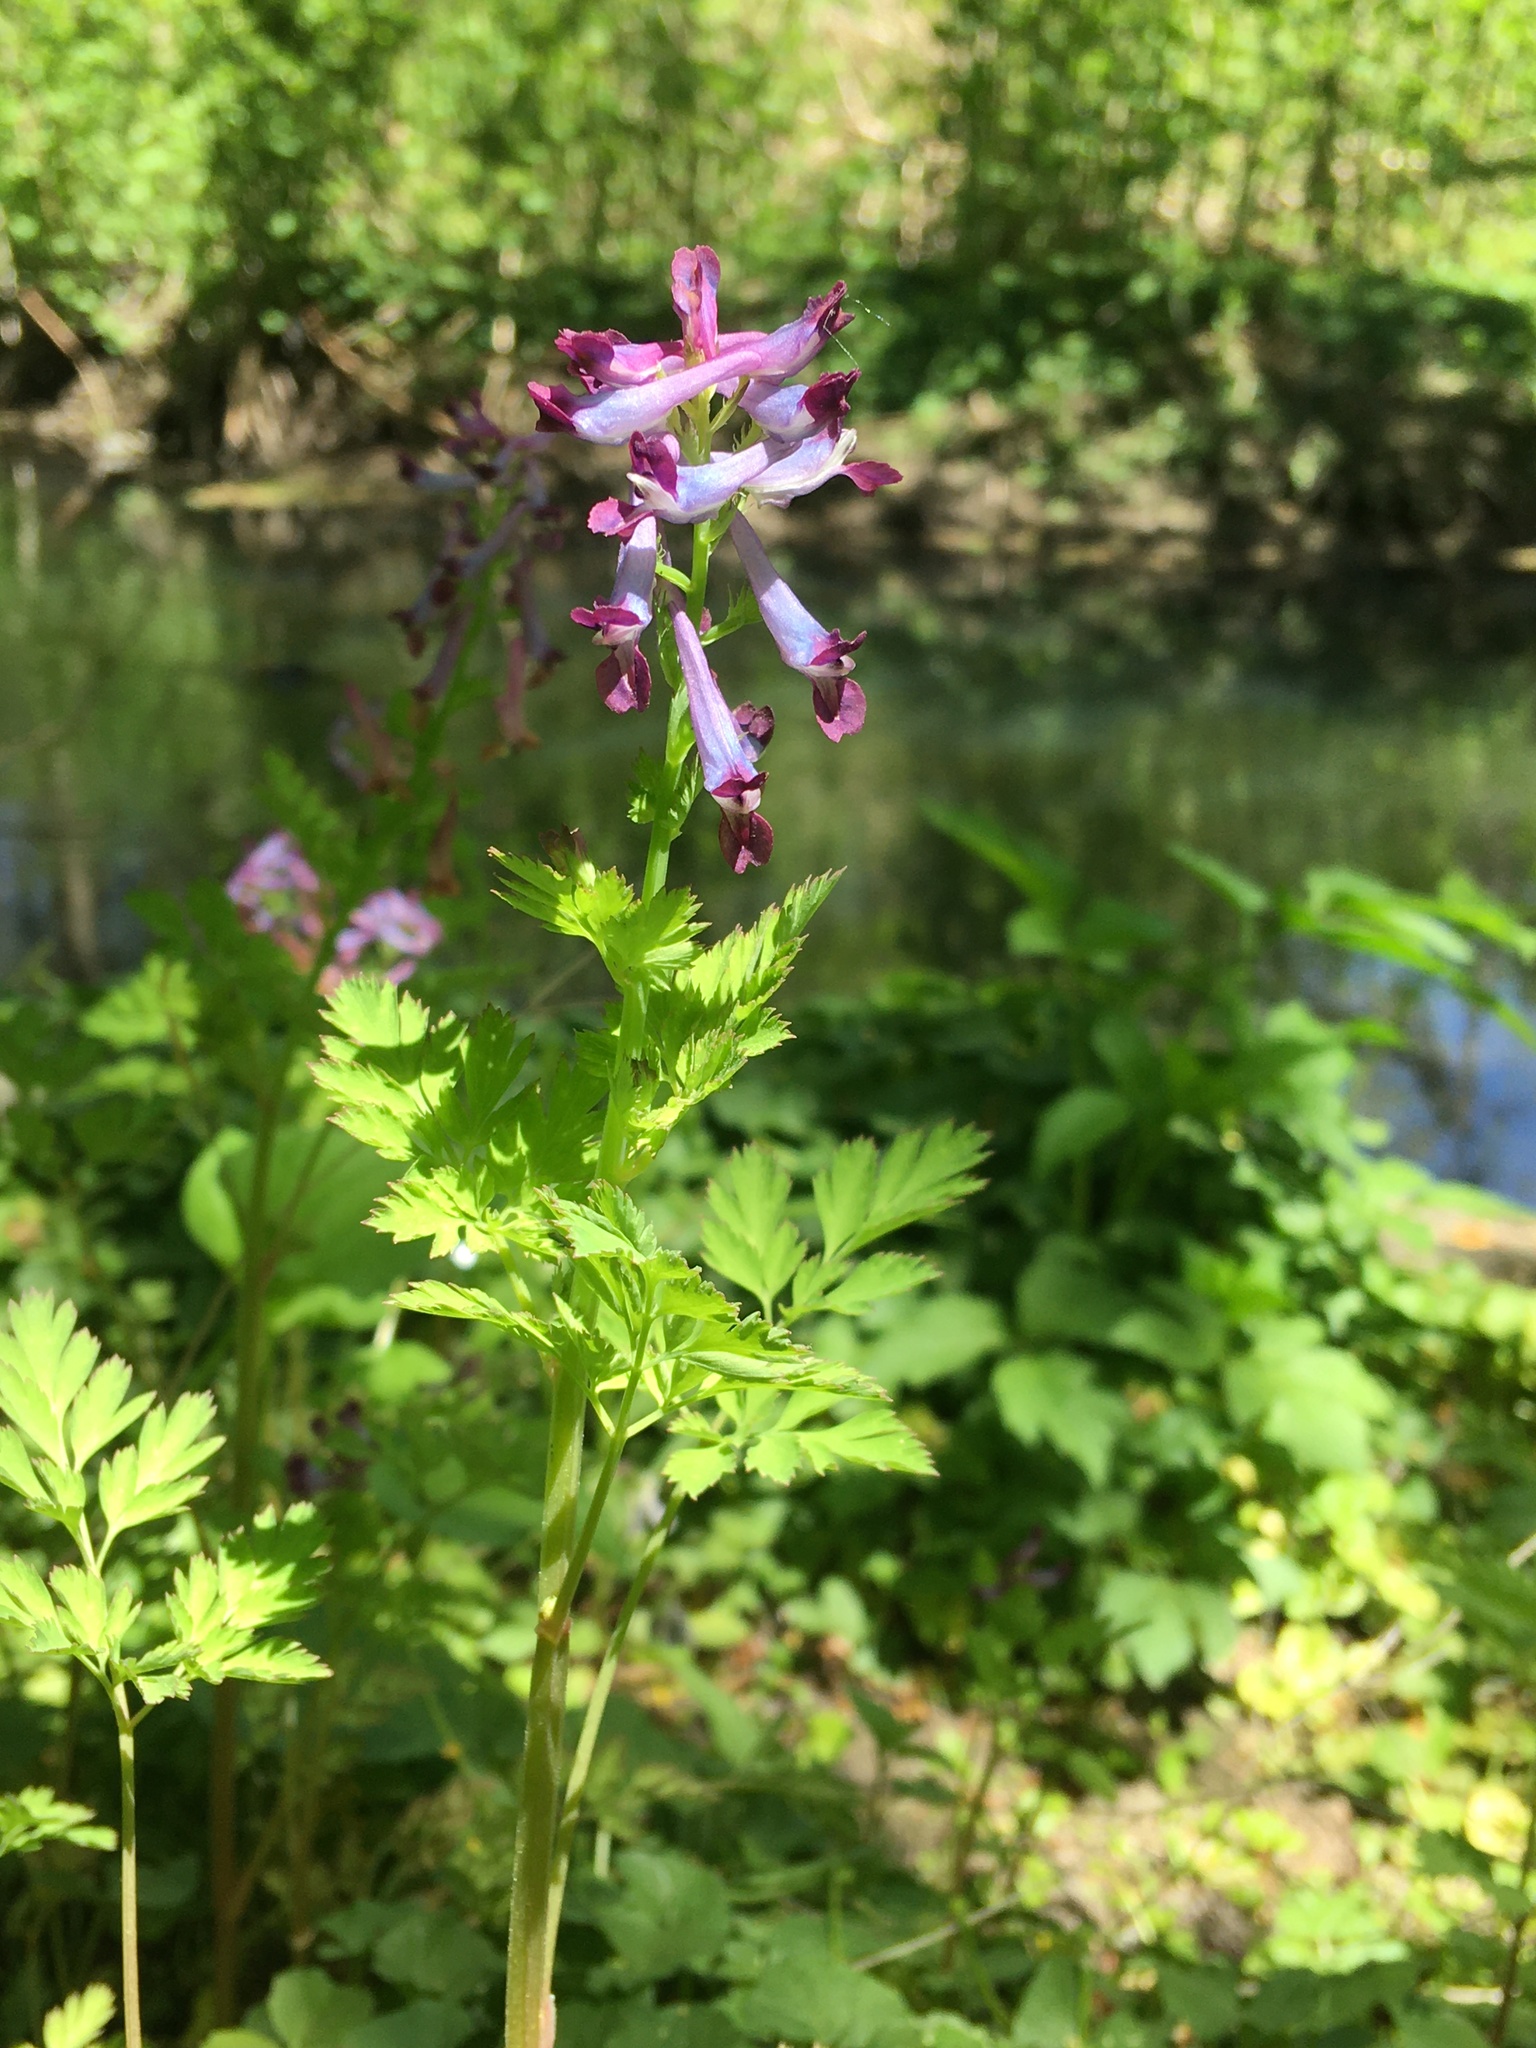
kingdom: Plantae
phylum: Tracheophyta
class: Magnoliopsida
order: Ranunculales
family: Papaveraceae
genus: Corydalis
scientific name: Corydalis incisa
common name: Incised fumewort
